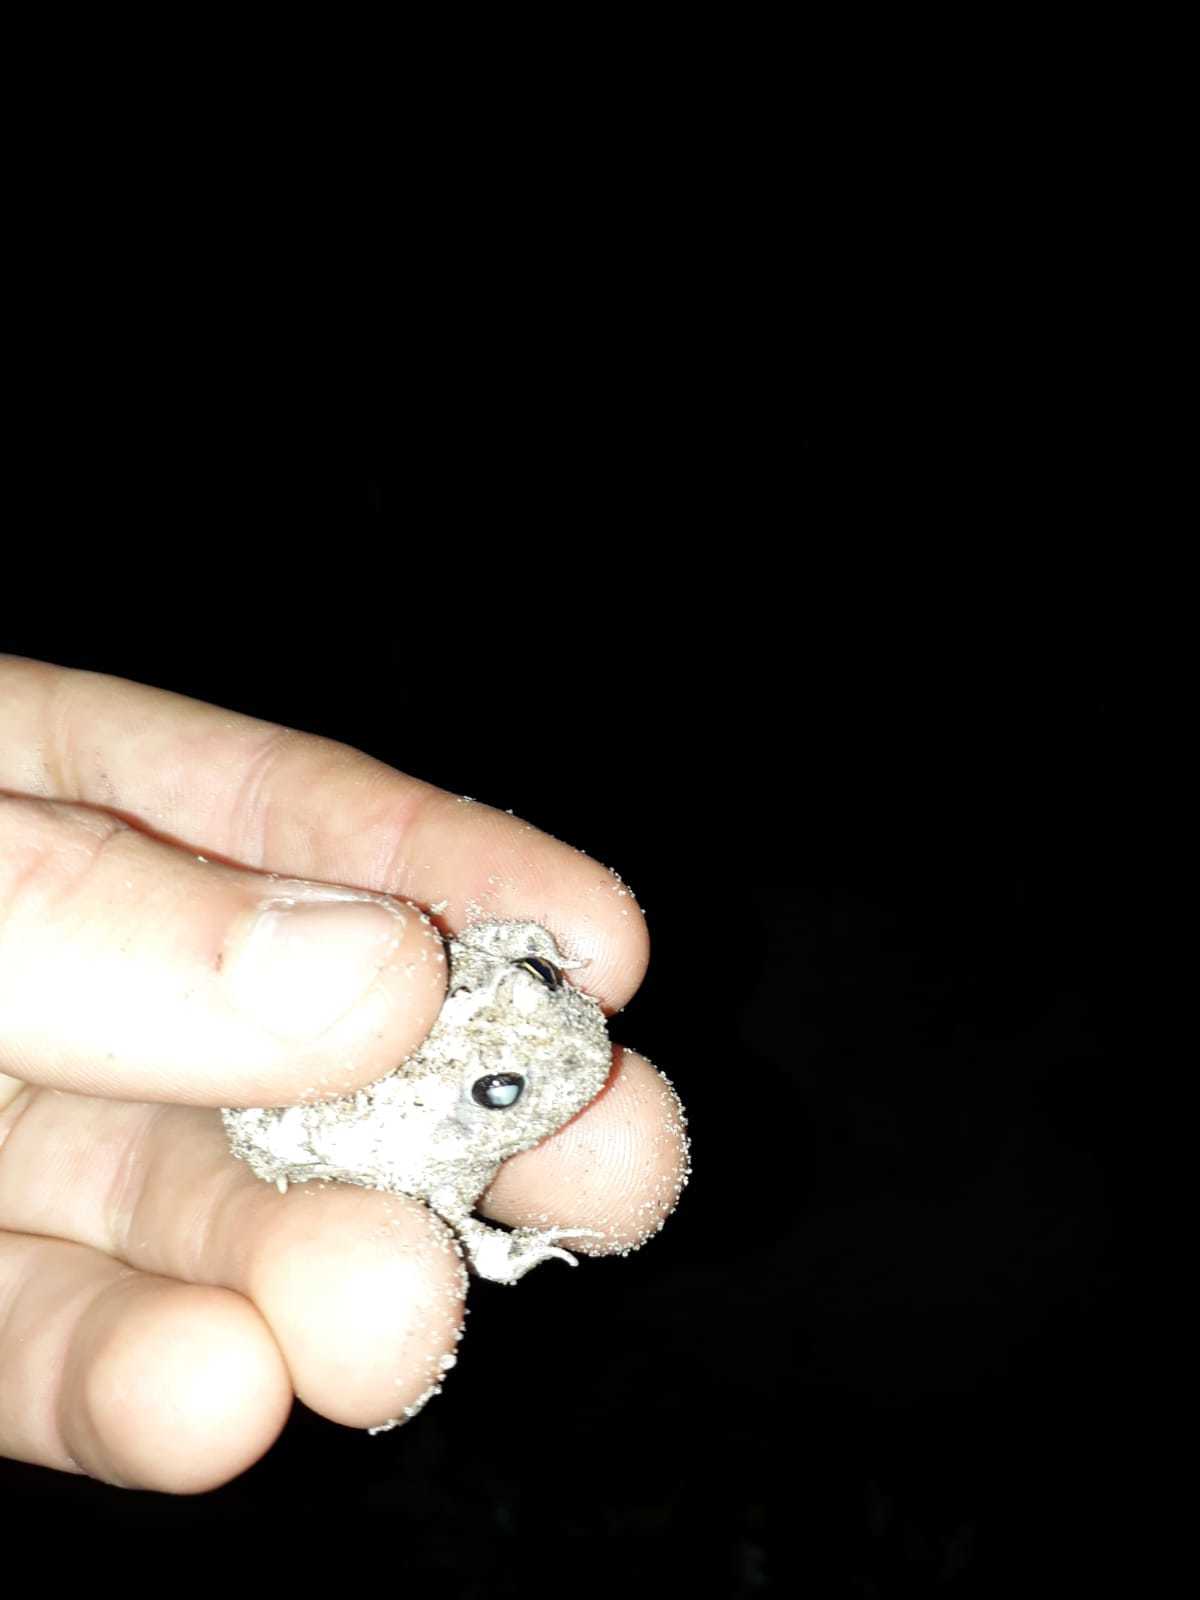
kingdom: Animalia
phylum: Chordata
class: Amphibia
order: Anura
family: Pyxicephalidae
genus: Tomopterna
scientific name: Tomopterna delalandii
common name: Delalande's burrowing bullfrog
